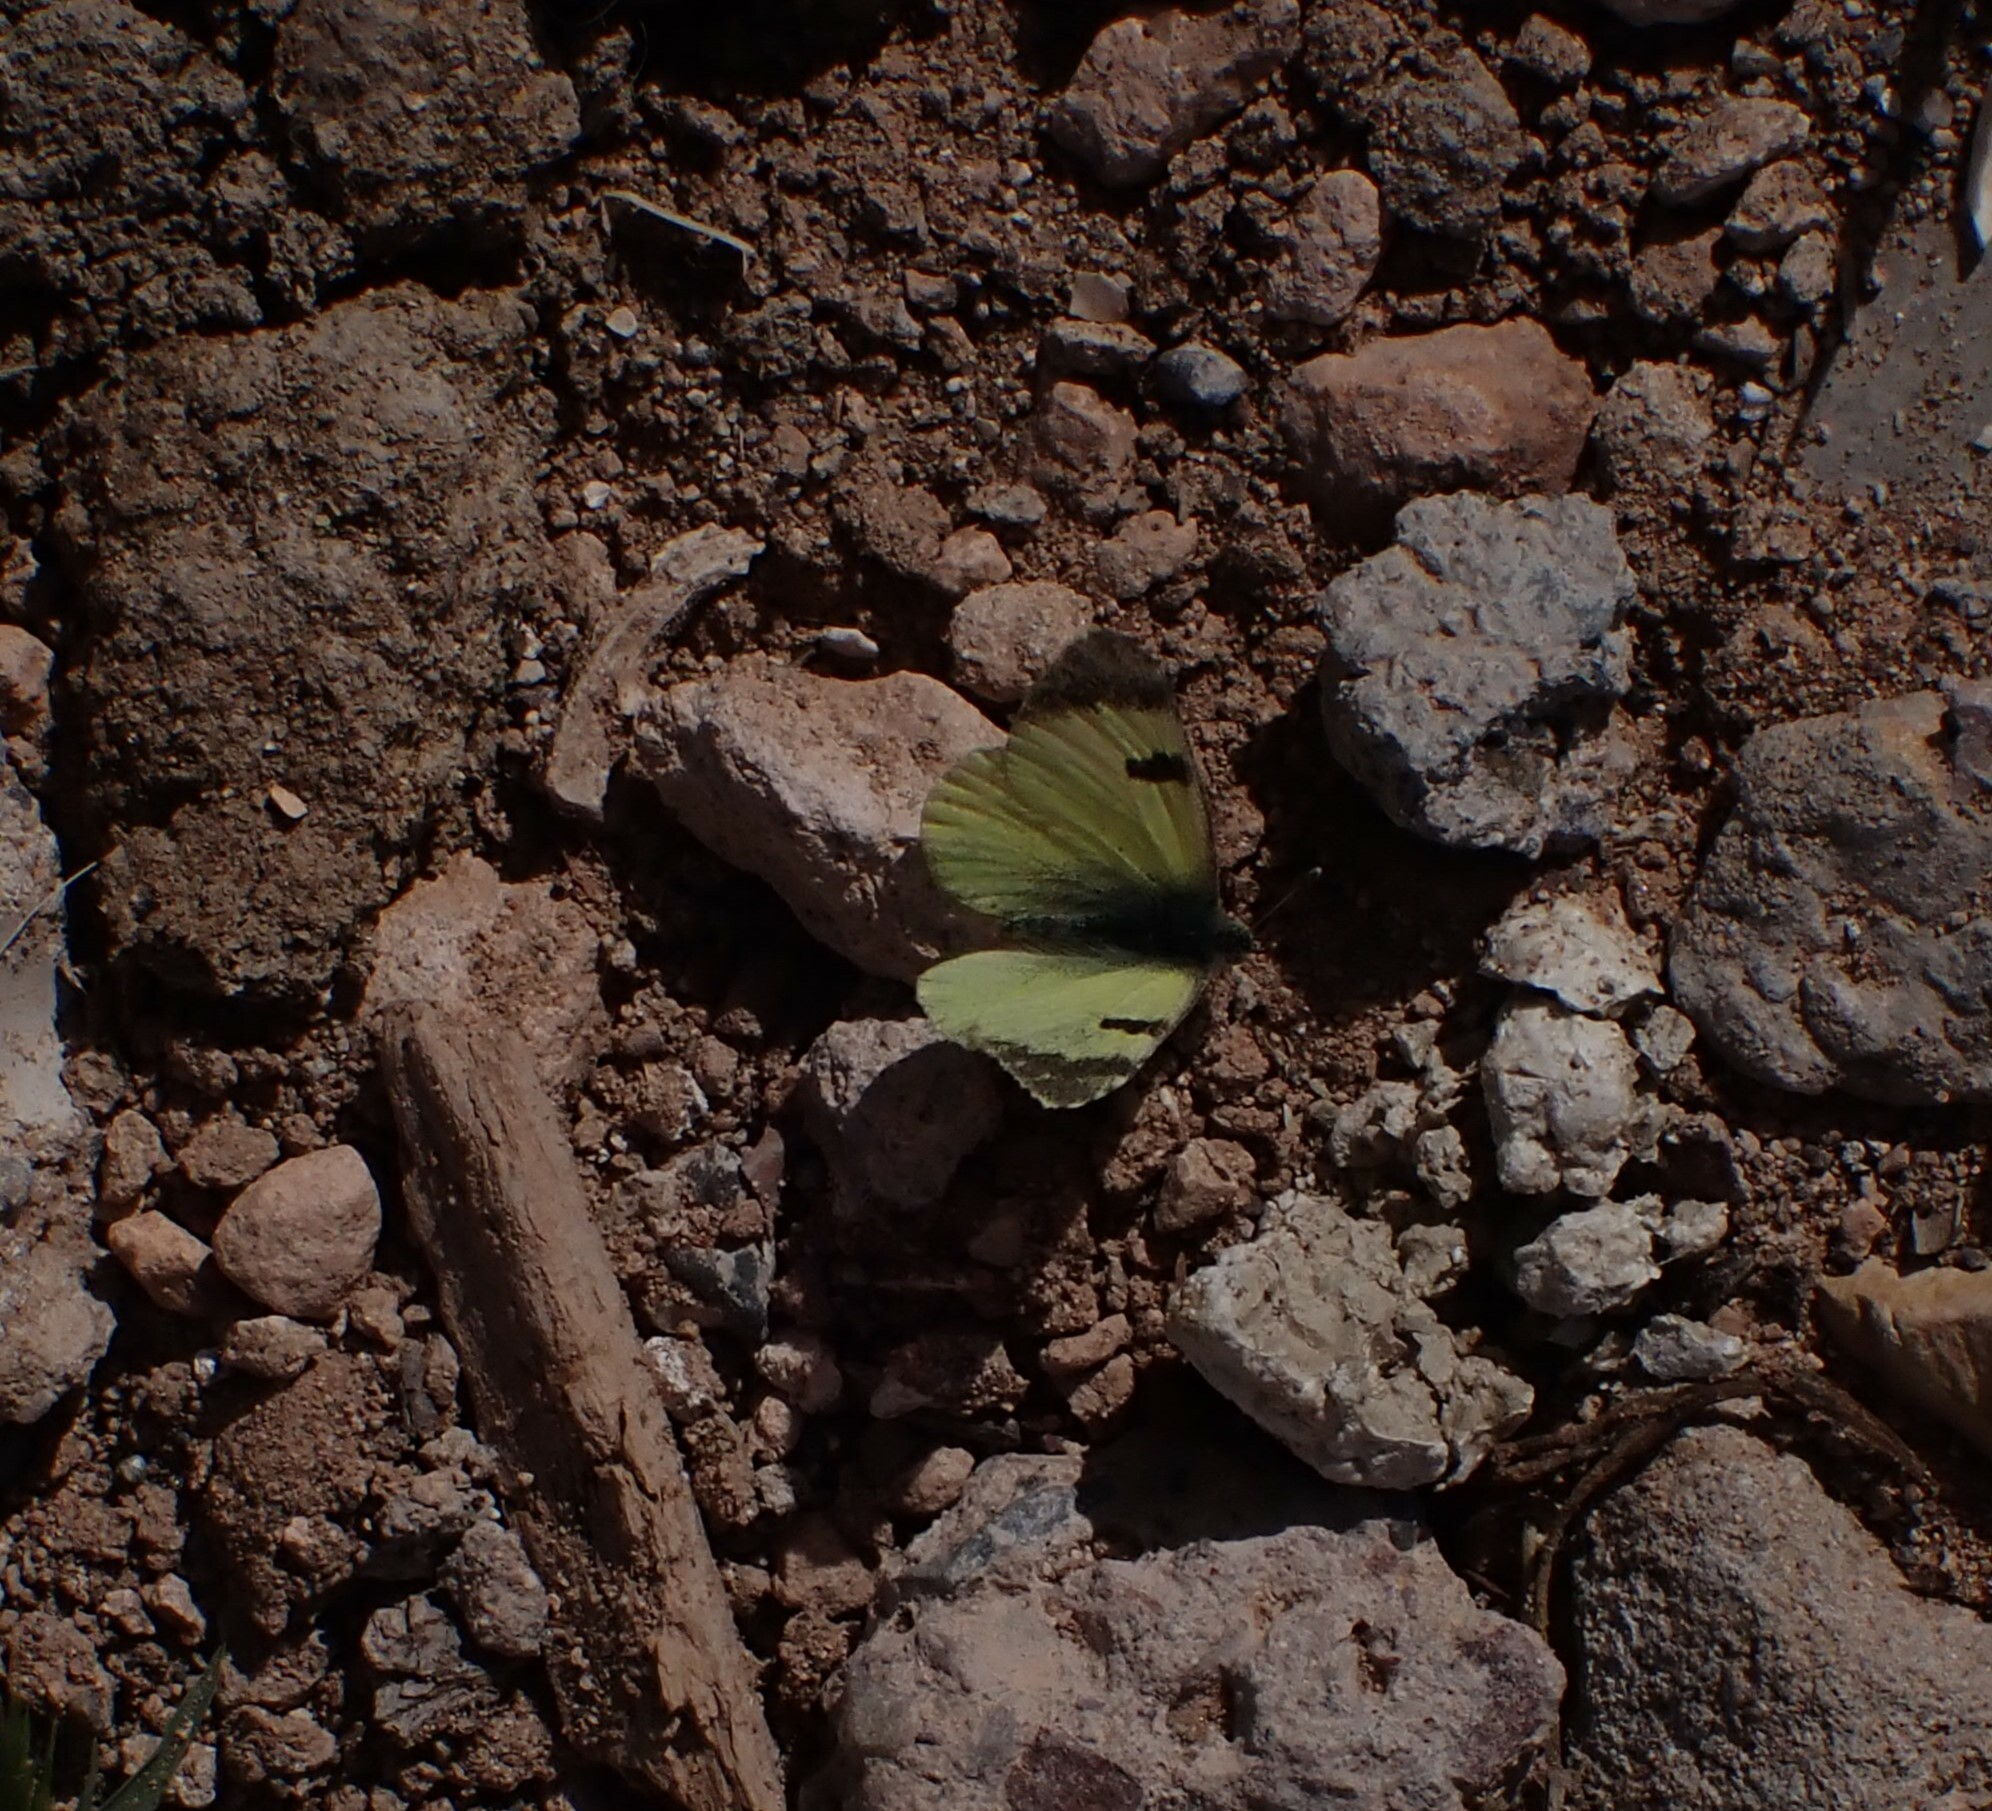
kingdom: Animalia
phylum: Arthropoda
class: Insecta
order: Lepidoptera
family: Pieridae
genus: Elphinstonia
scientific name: Elphinstonia charlonia
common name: Greenish black-tip
